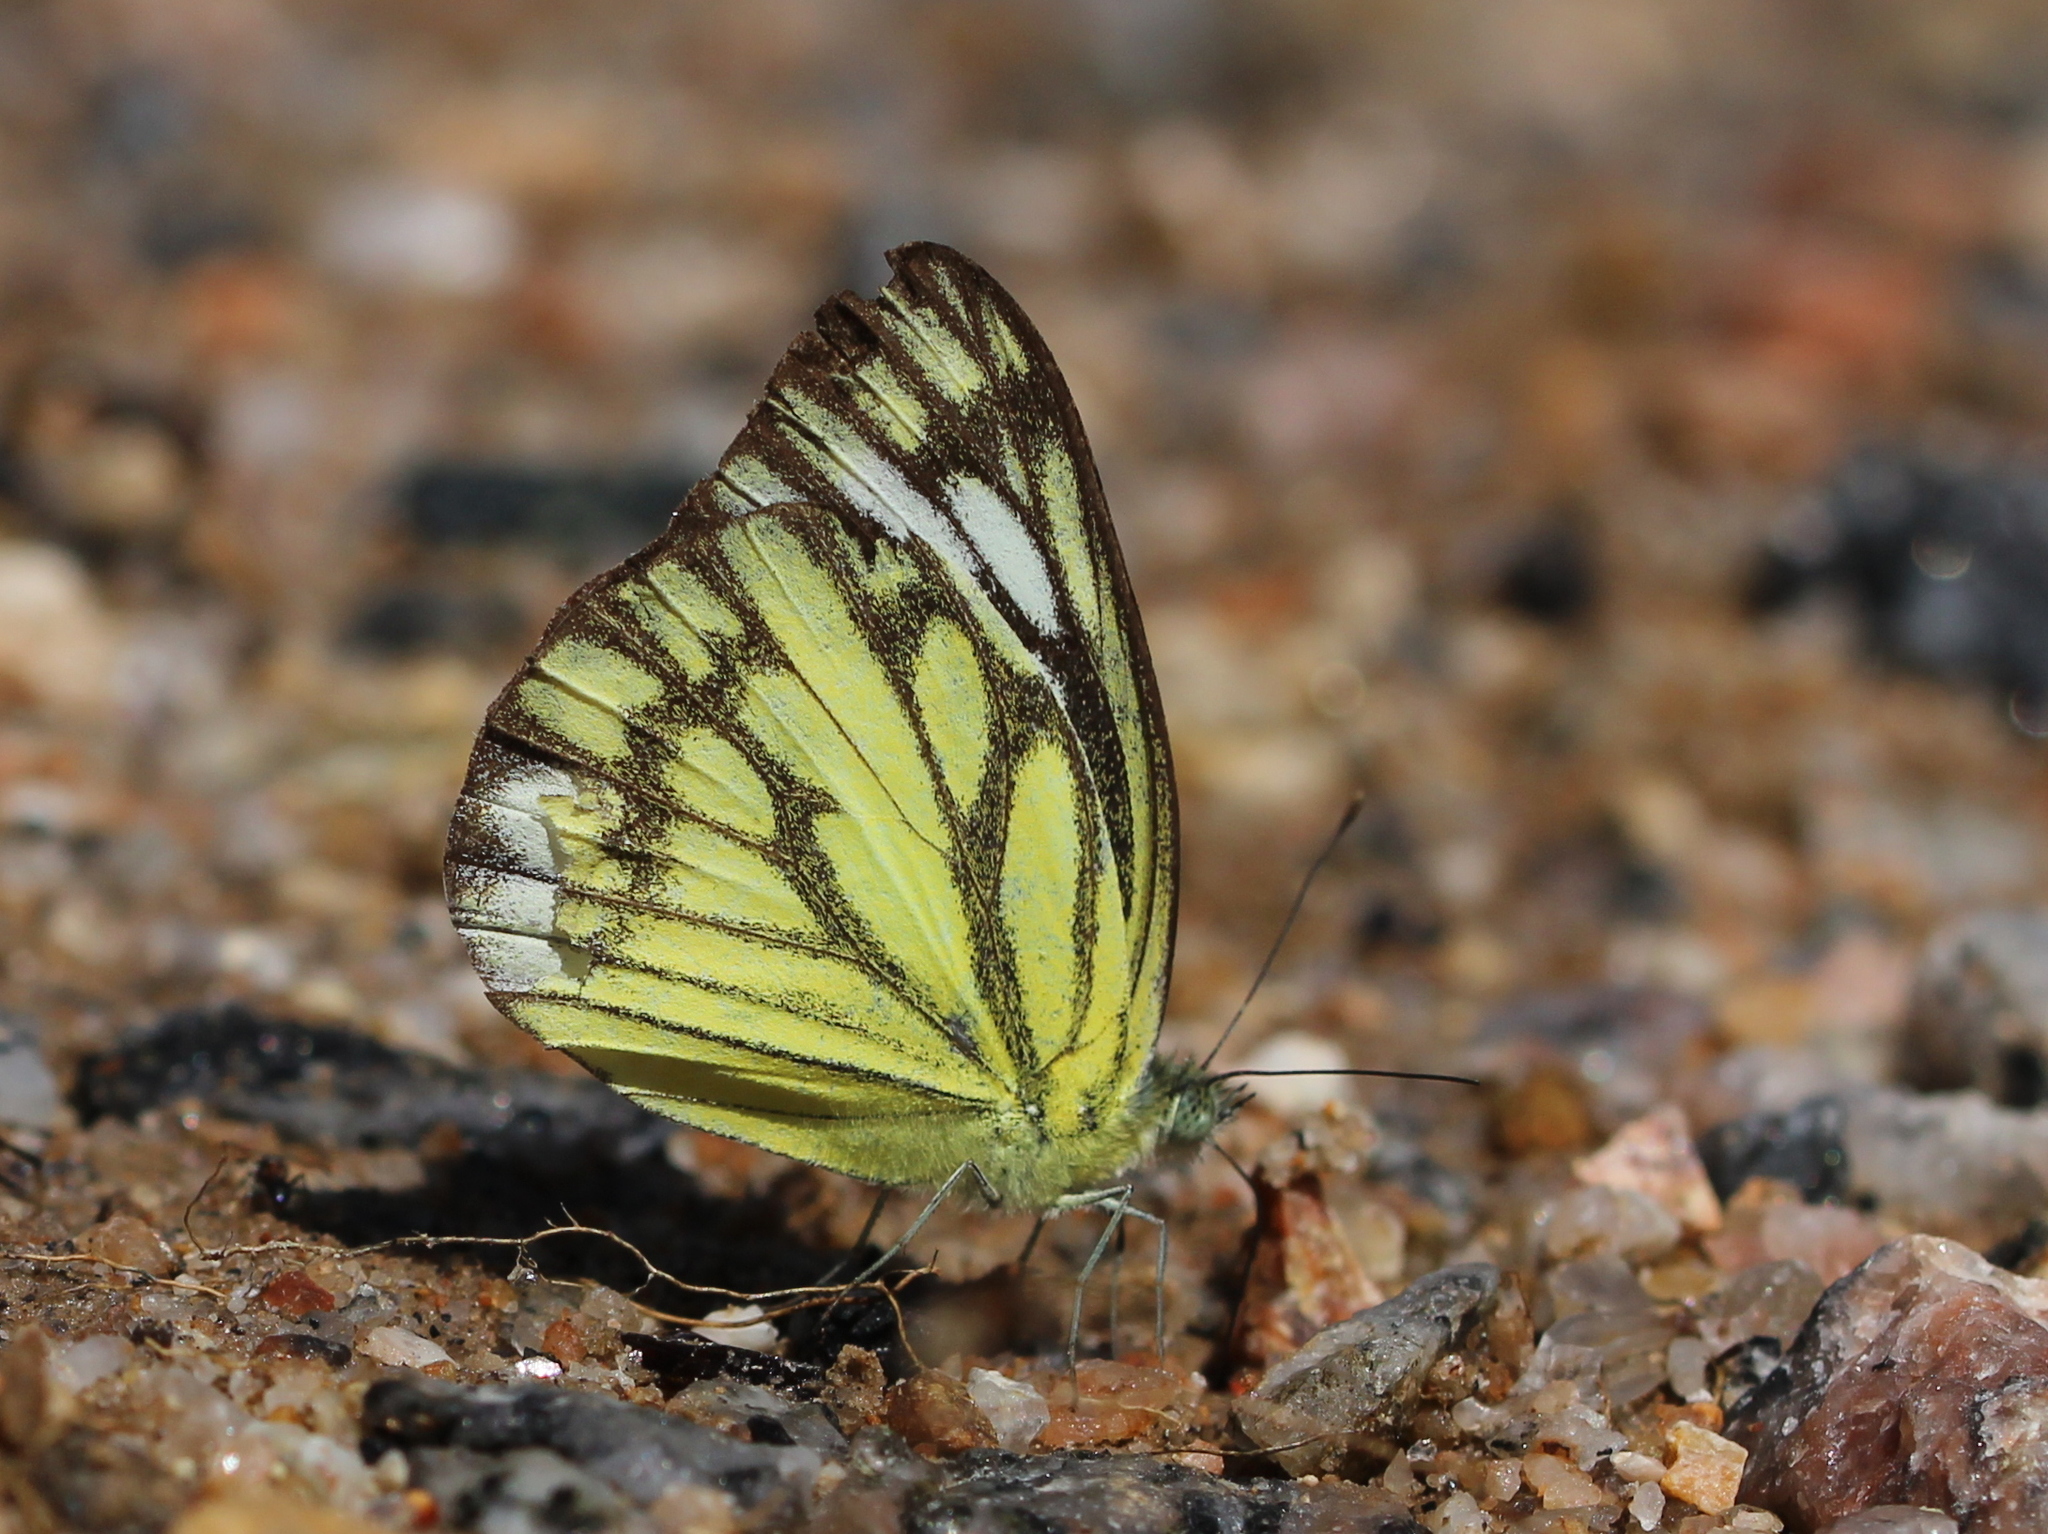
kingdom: Animalia
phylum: Arthropoda
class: Insecta
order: Lepidoptera
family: Pieridae
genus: Cepora
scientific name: Cepora nerissa
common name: Common gull
